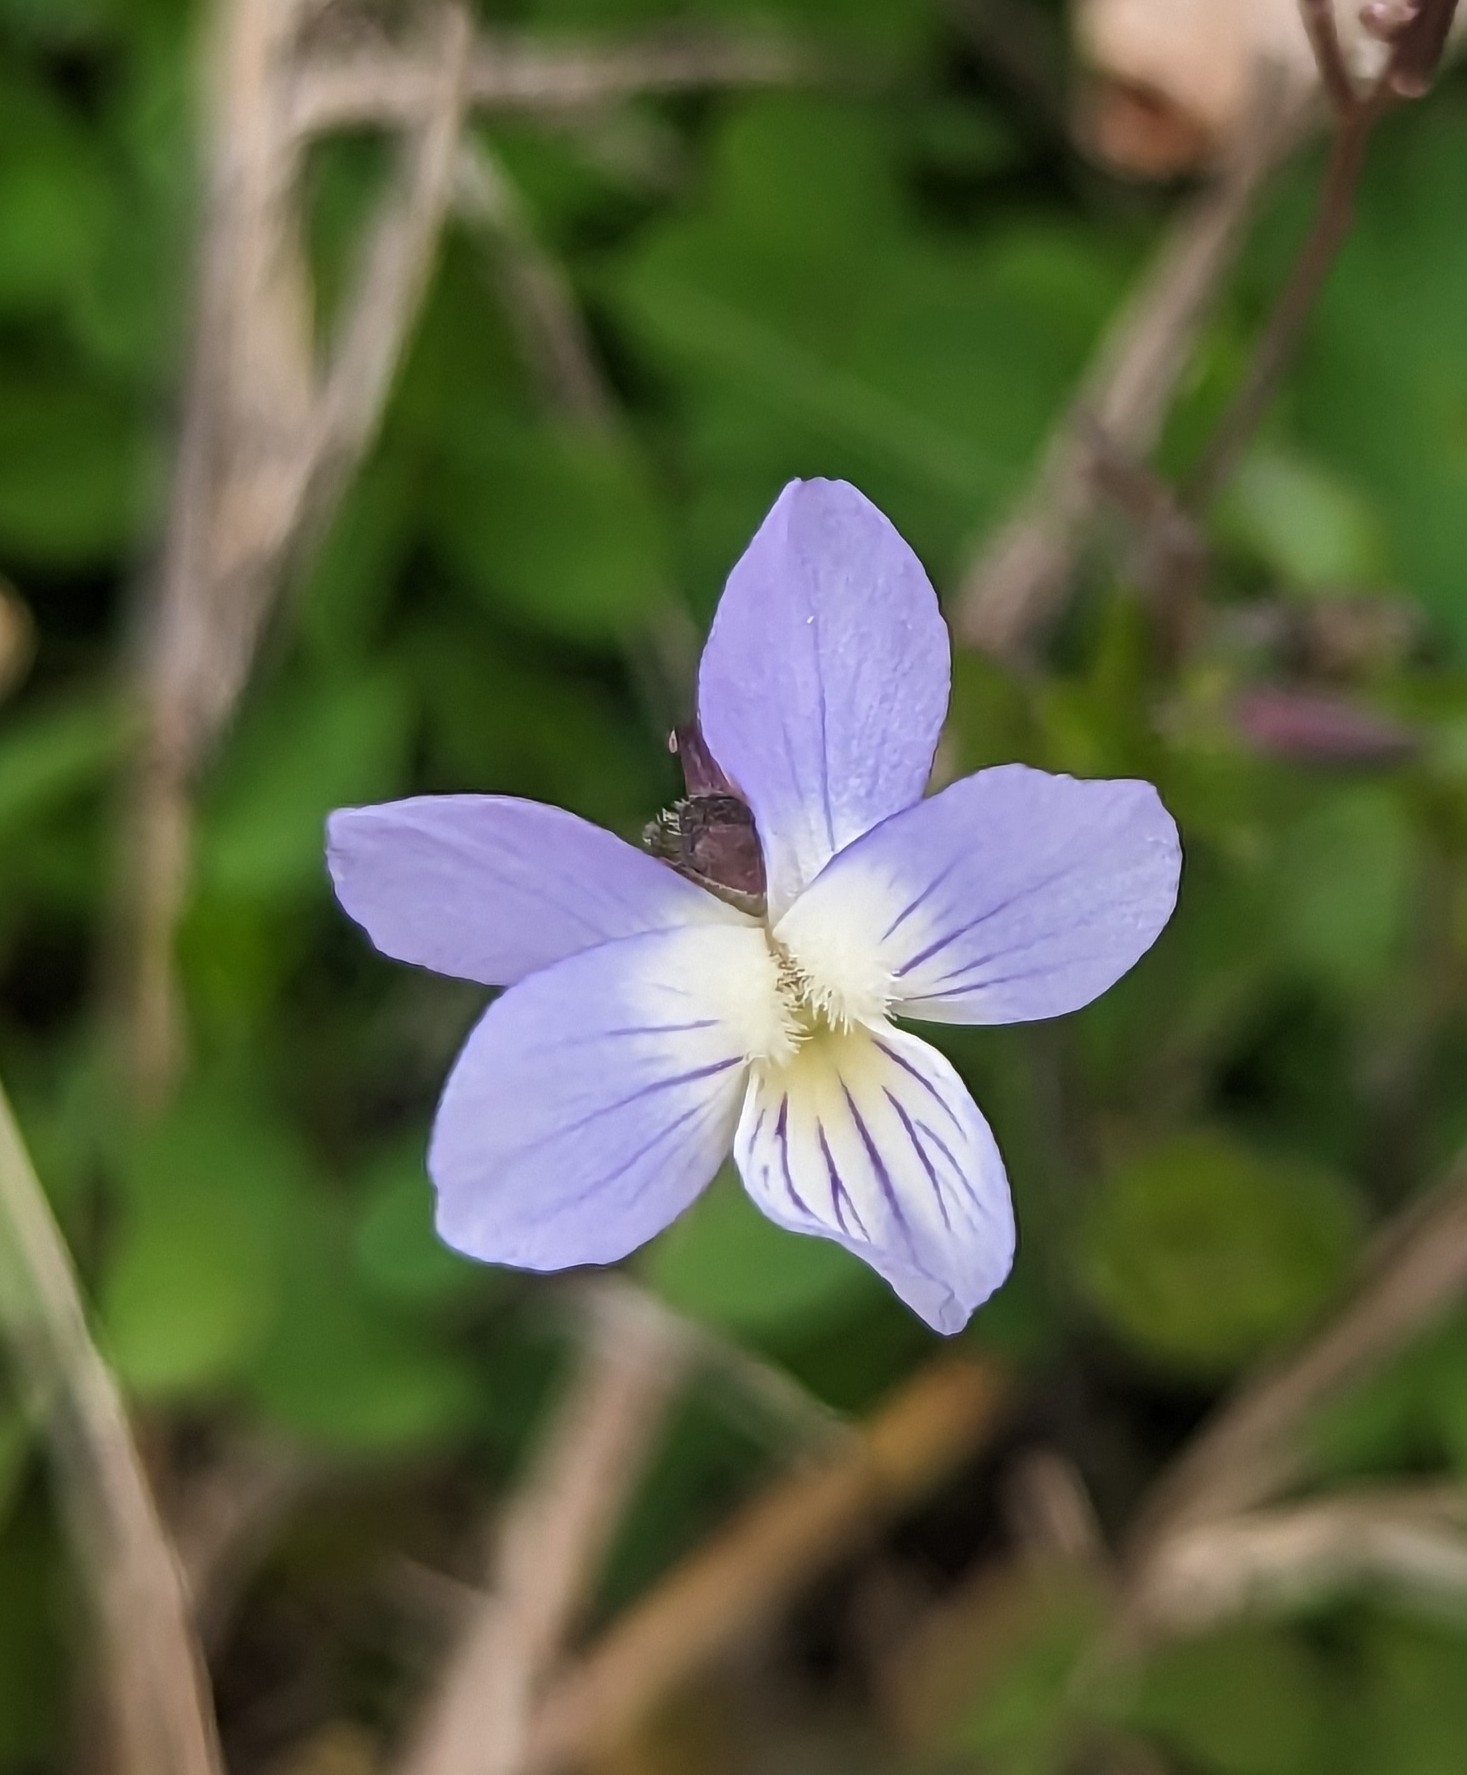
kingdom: Plantae
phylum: Tracheophyta
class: Magnoliopsida
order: Malpighiales
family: Violaceae
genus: Viola
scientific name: Viola rafinesquei
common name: American field pansy
